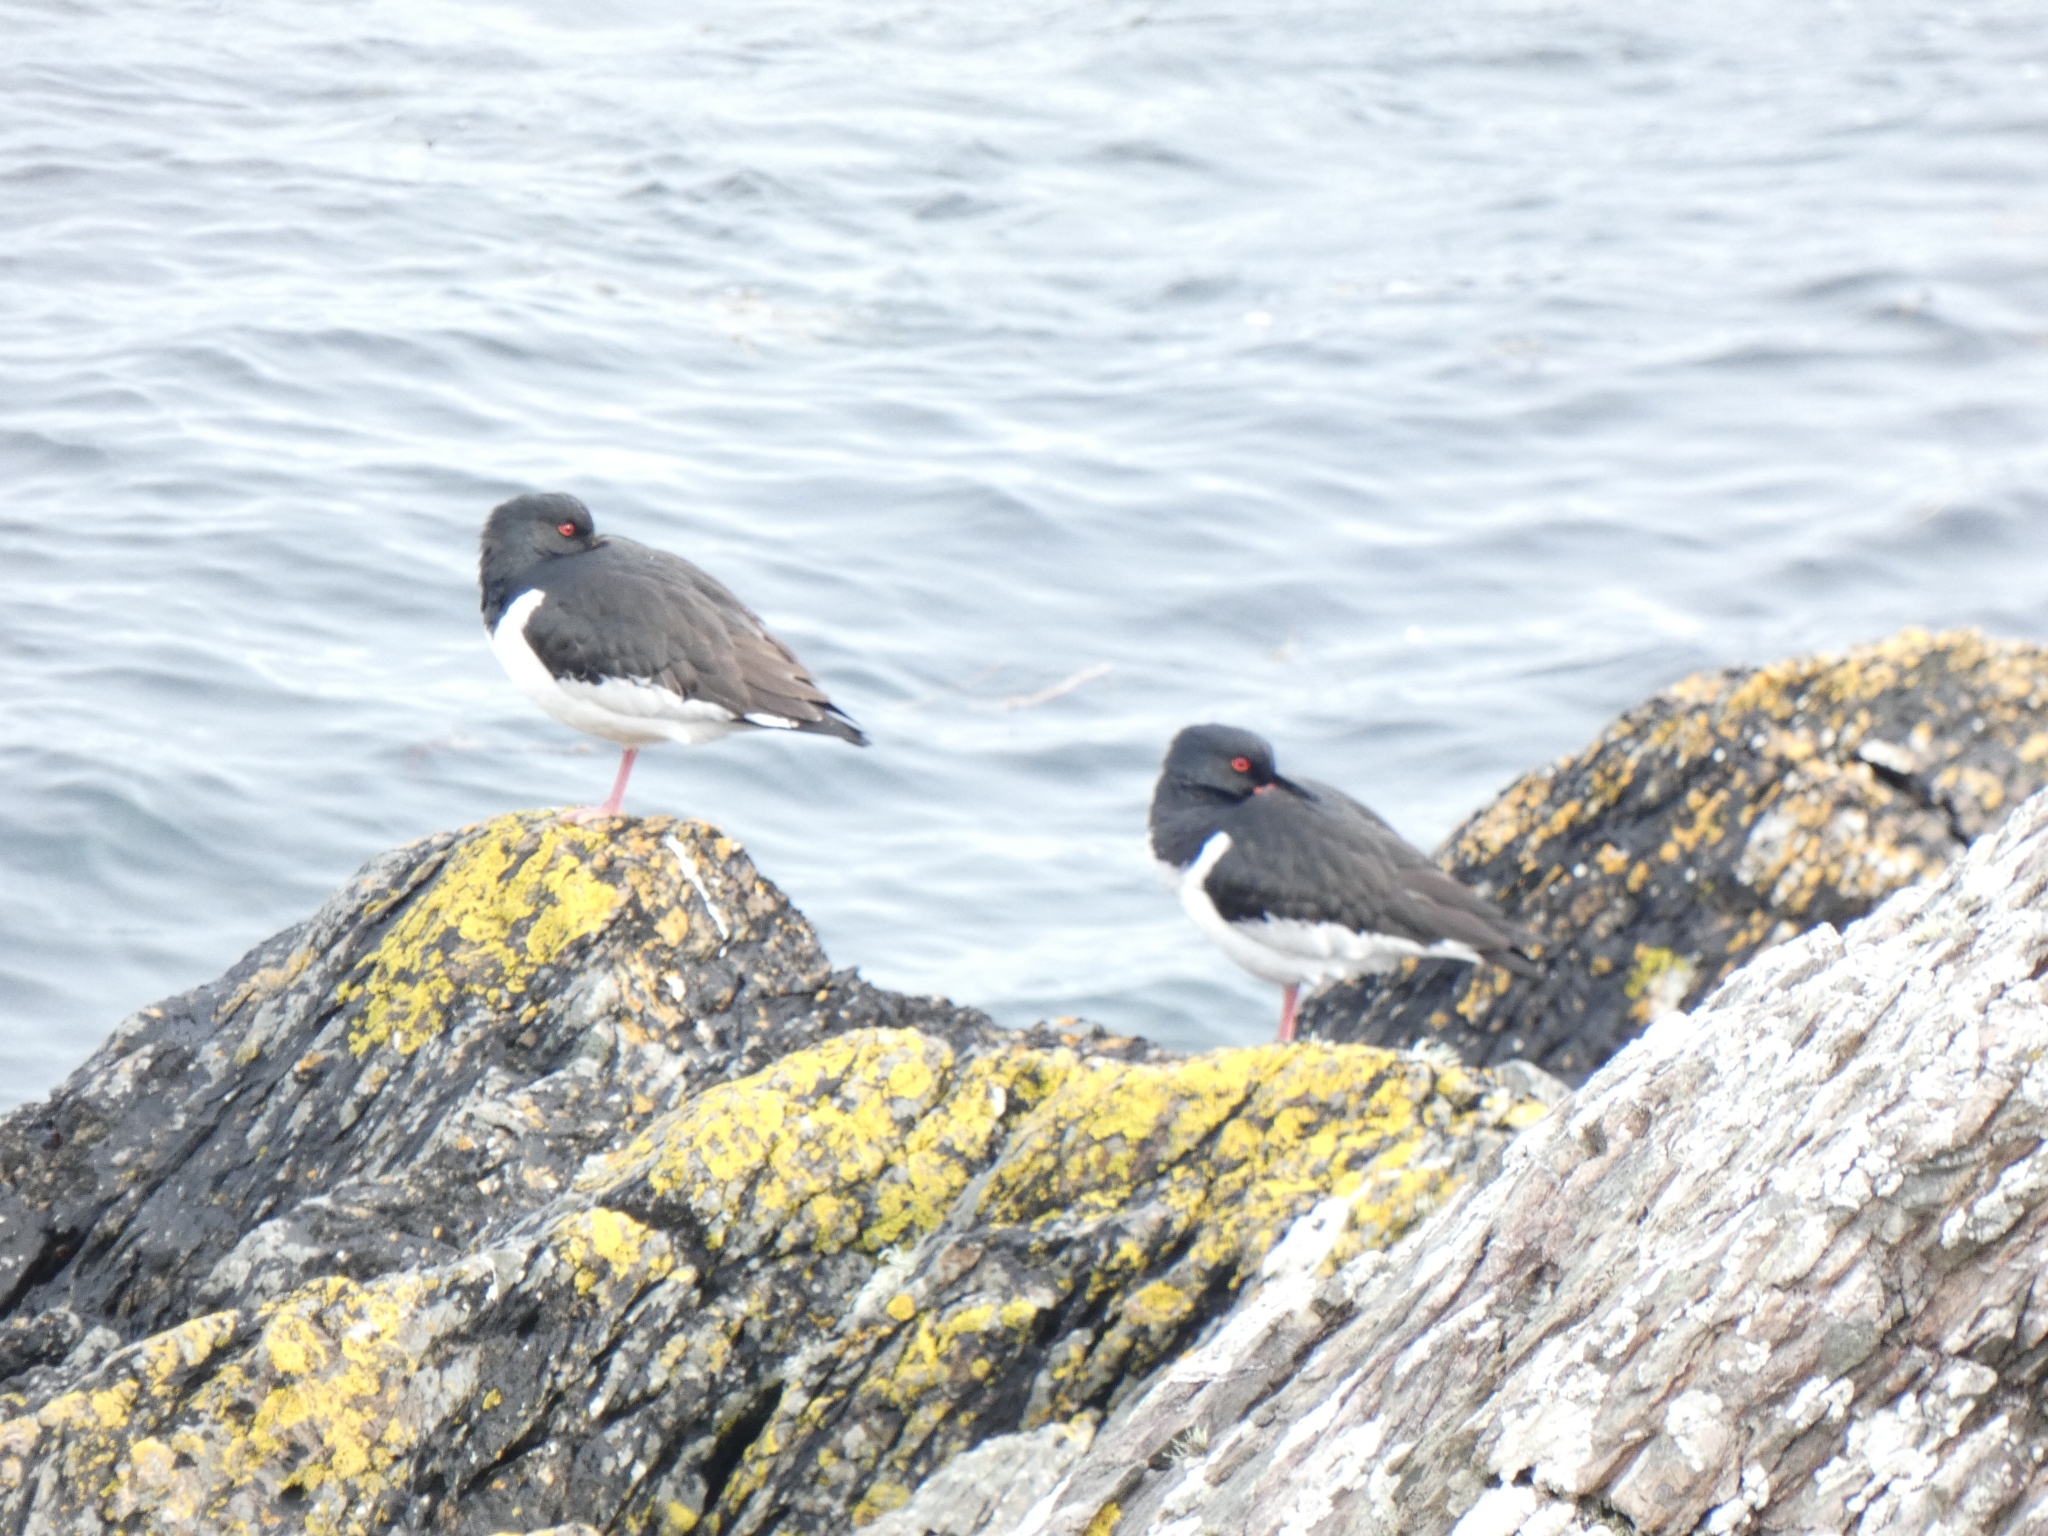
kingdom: Animalia
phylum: Chordata
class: Aves
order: Charadriiformes
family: Haematopodidae
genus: Haematopus
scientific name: Haematopus ostralegus
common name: Eurasian oystercatcher
